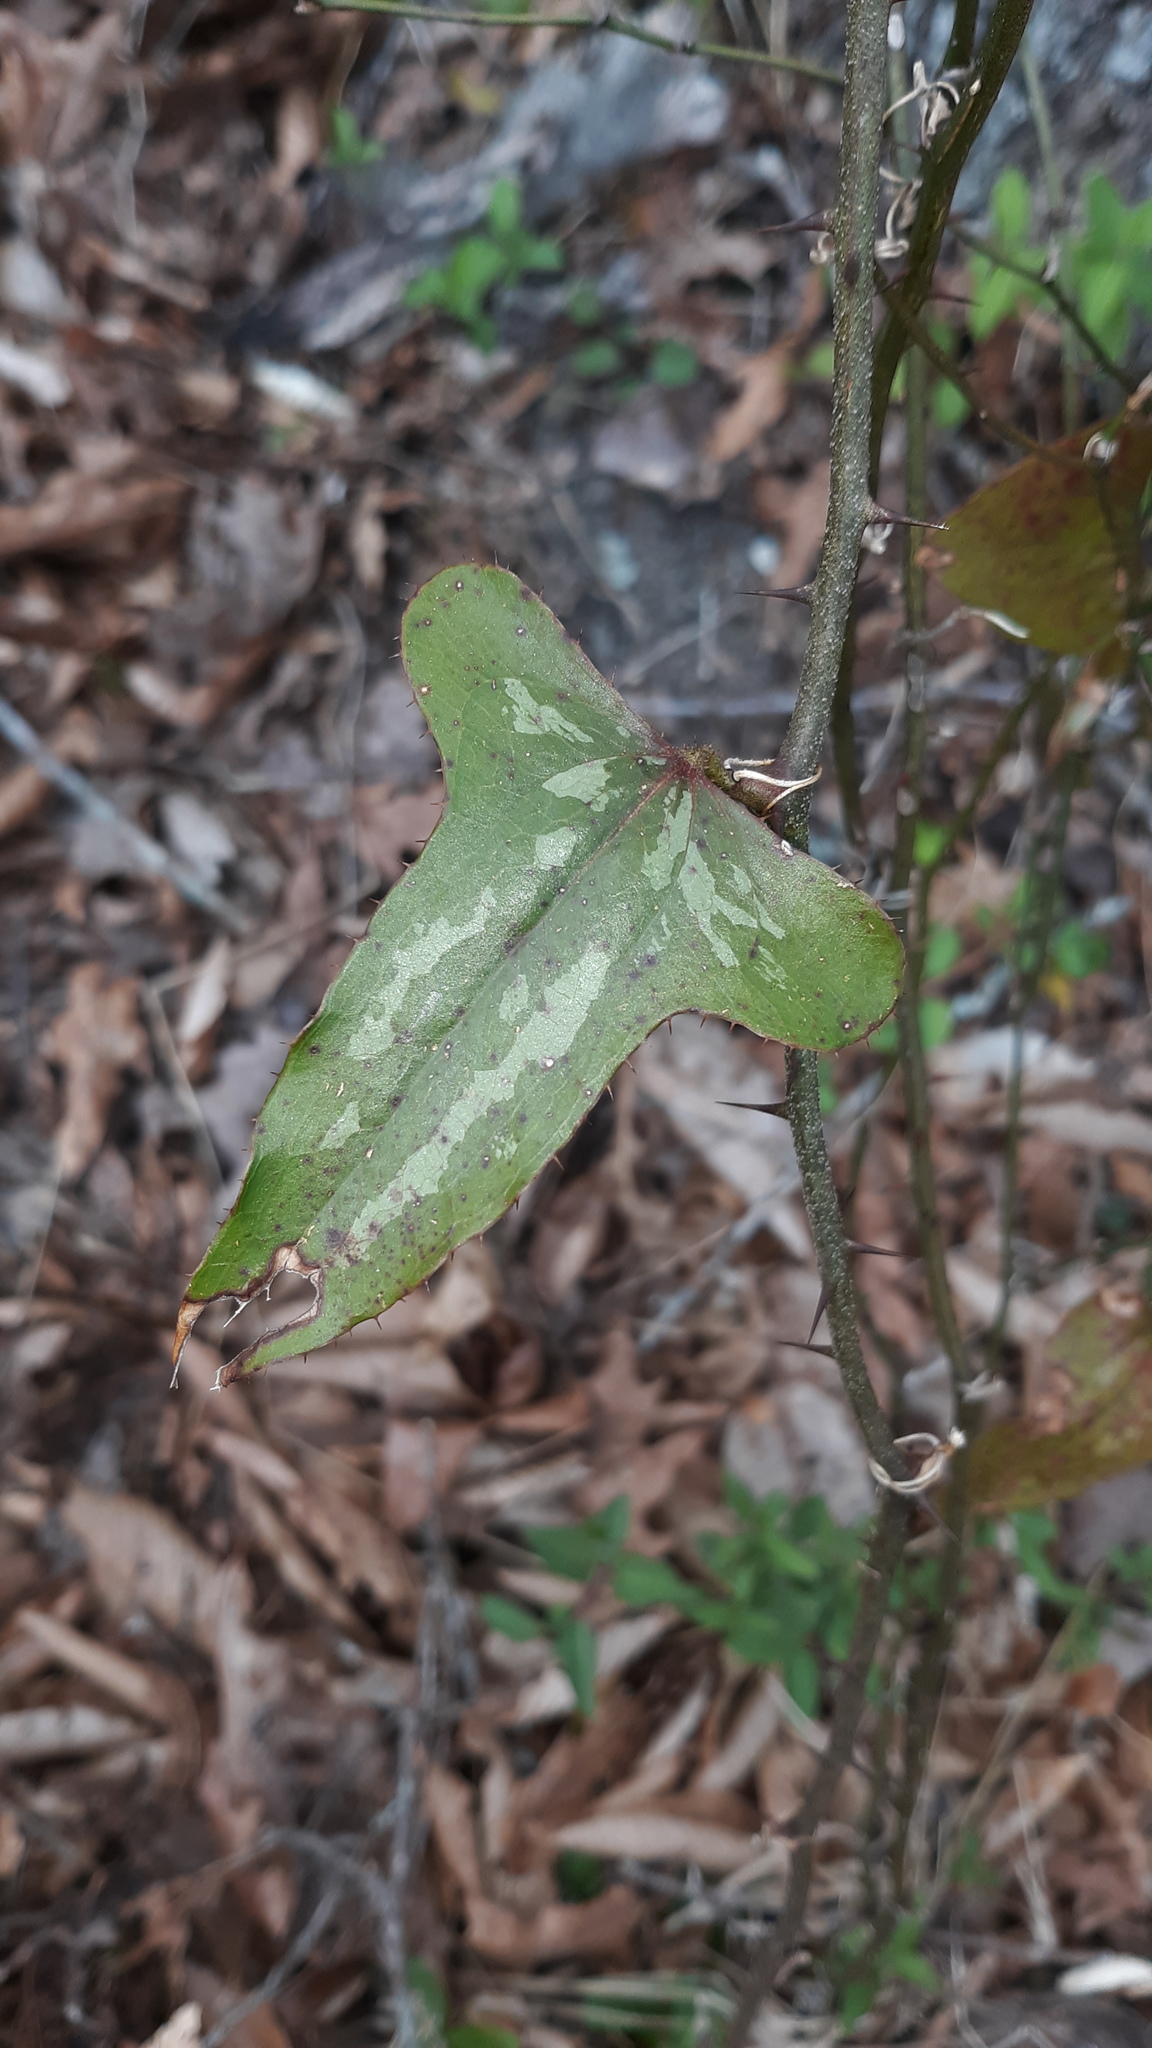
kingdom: Plantae
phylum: Tracheophyta
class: Liliopsida
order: Liliales
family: Smilacaceae
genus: Smilax
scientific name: Smilax bona-nox
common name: Catbrier
